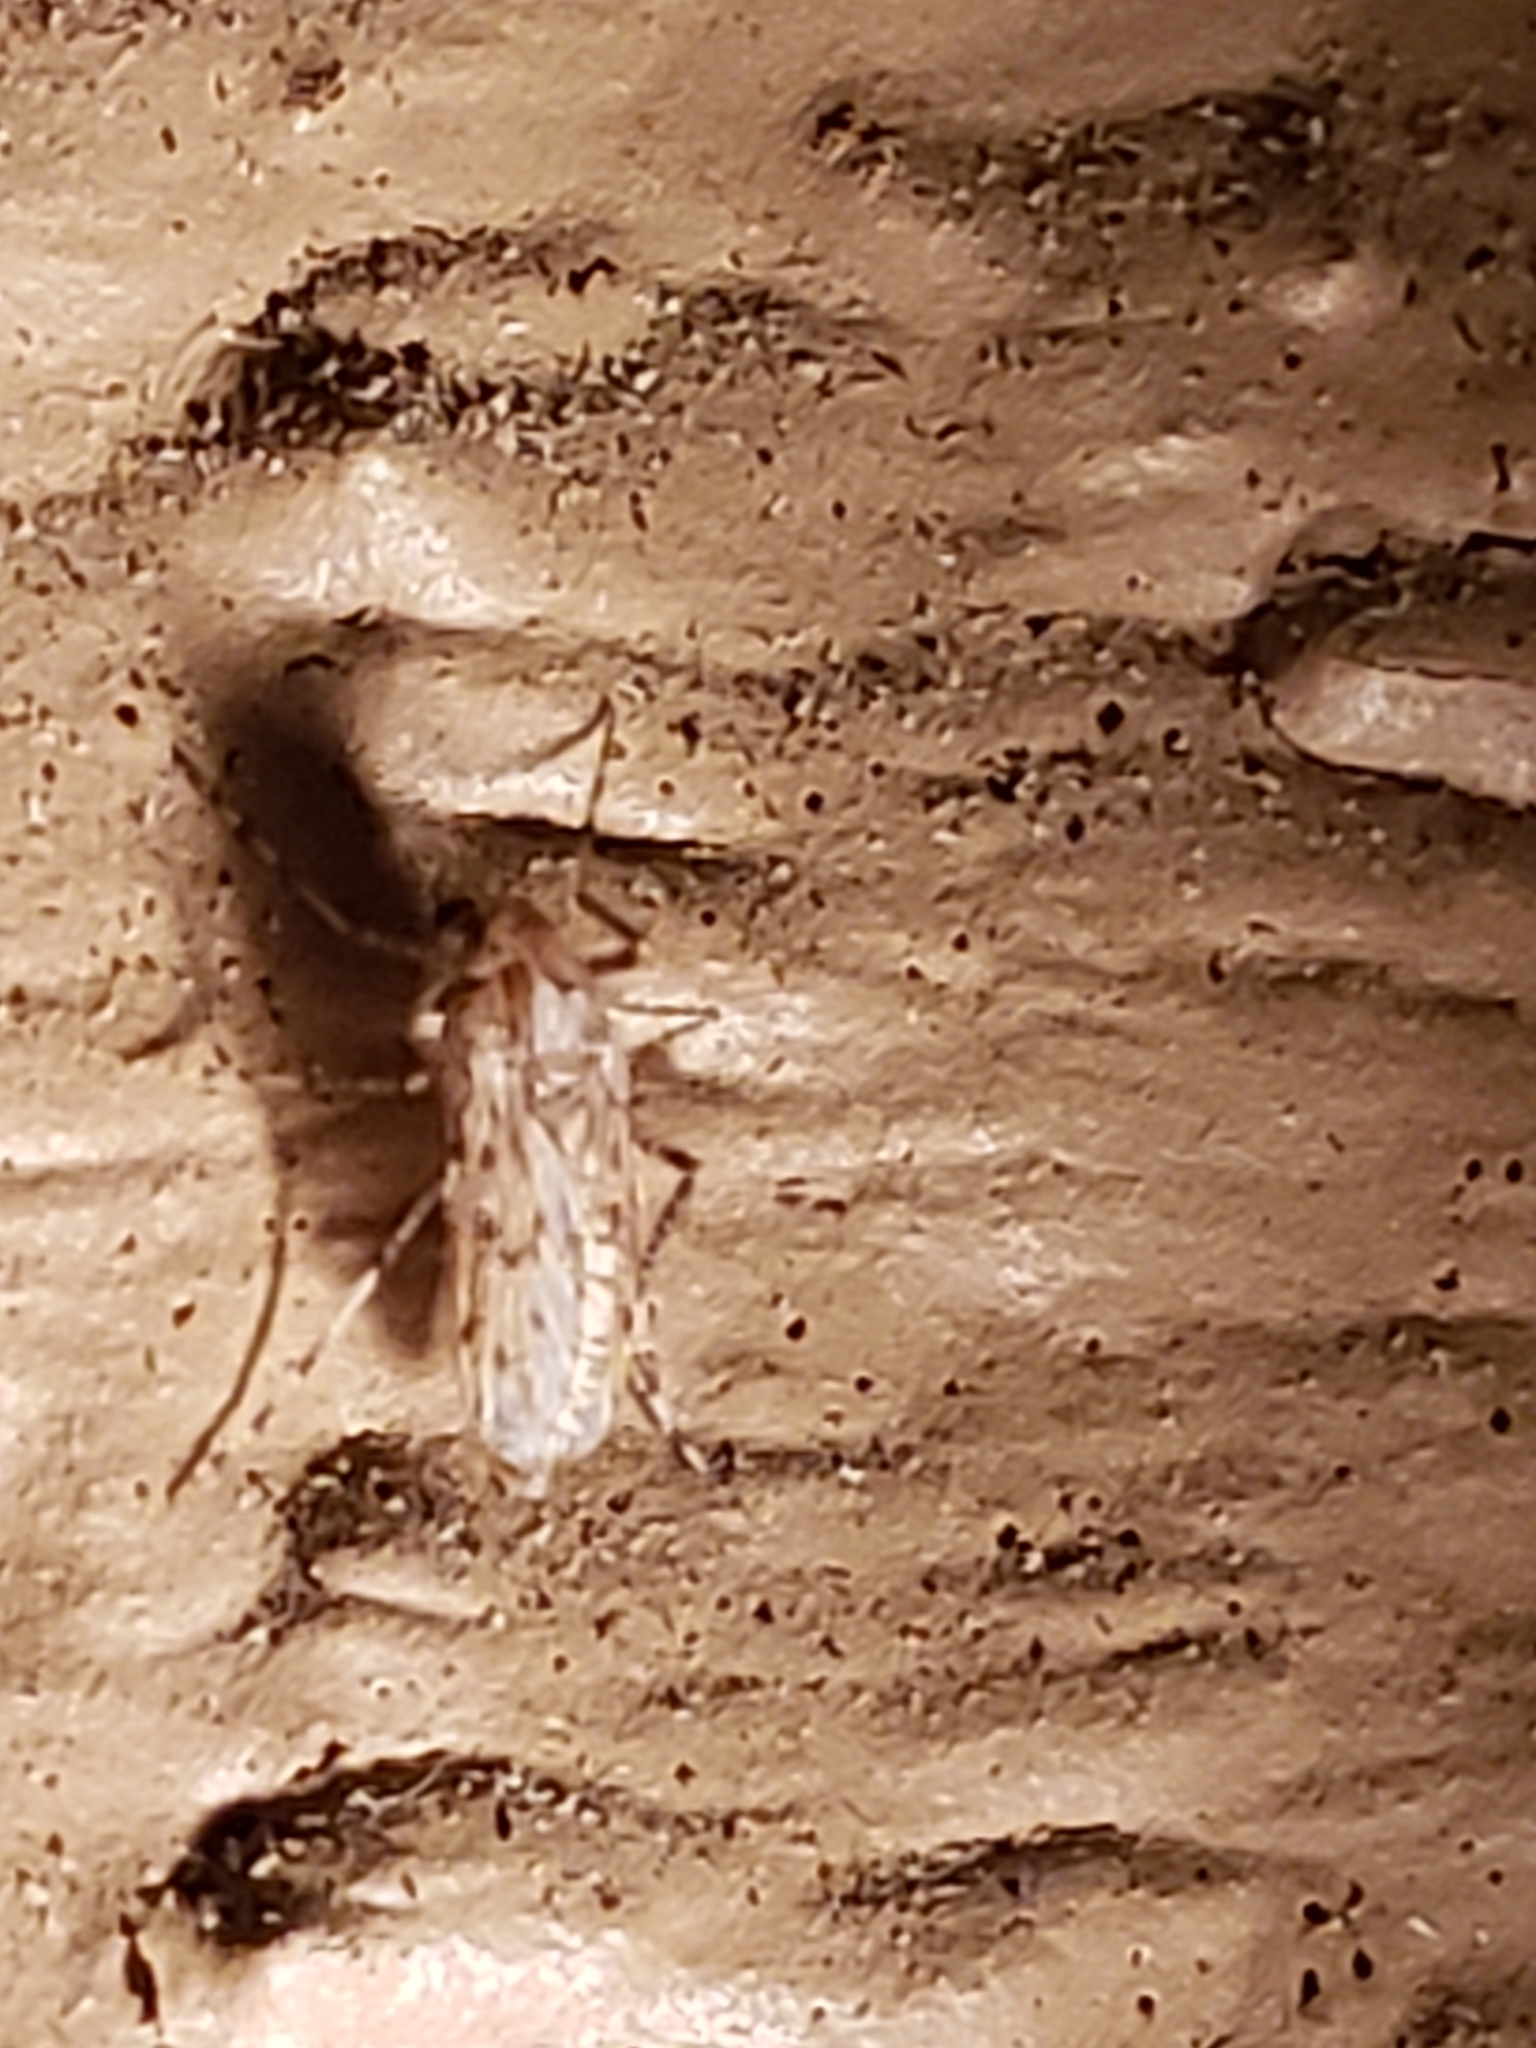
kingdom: Animalia
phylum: Arthropoda
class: Insecta
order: Diptera
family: Chaoboridae
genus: Chaoborus
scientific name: Chaoborus punctipennis
